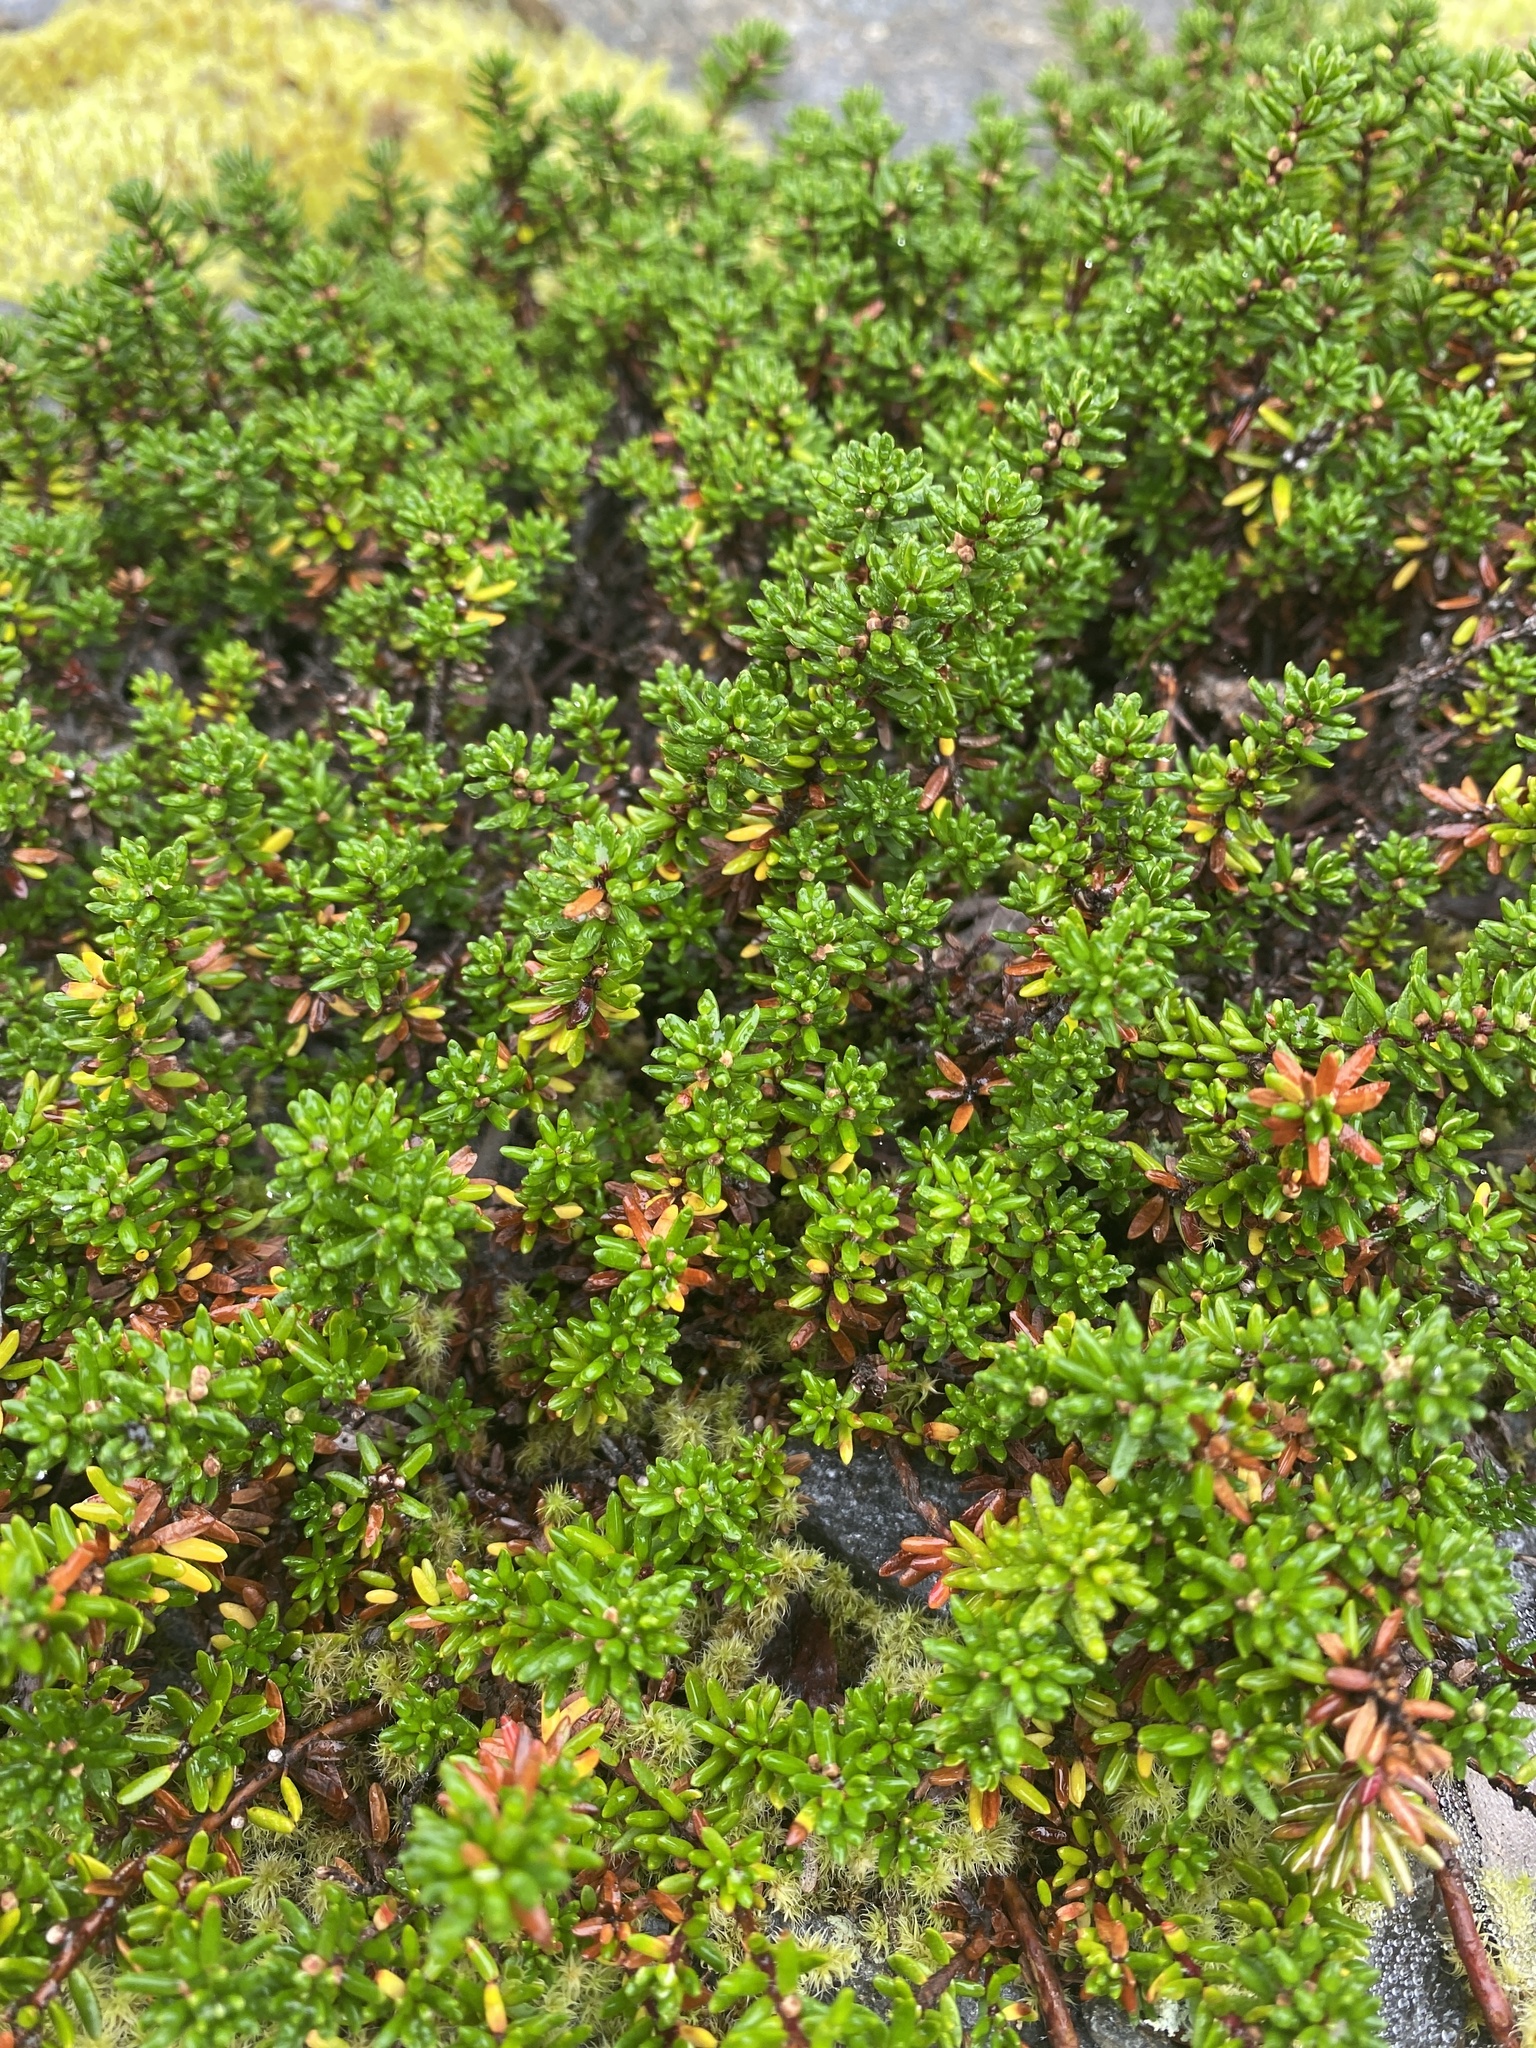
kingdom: Plantae
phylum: Tracheophyta
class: Magnoliopsida
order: Ericales
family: Ericaceae
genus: Empetrum
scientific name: Empetrum nigrum
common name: Black crowberry
